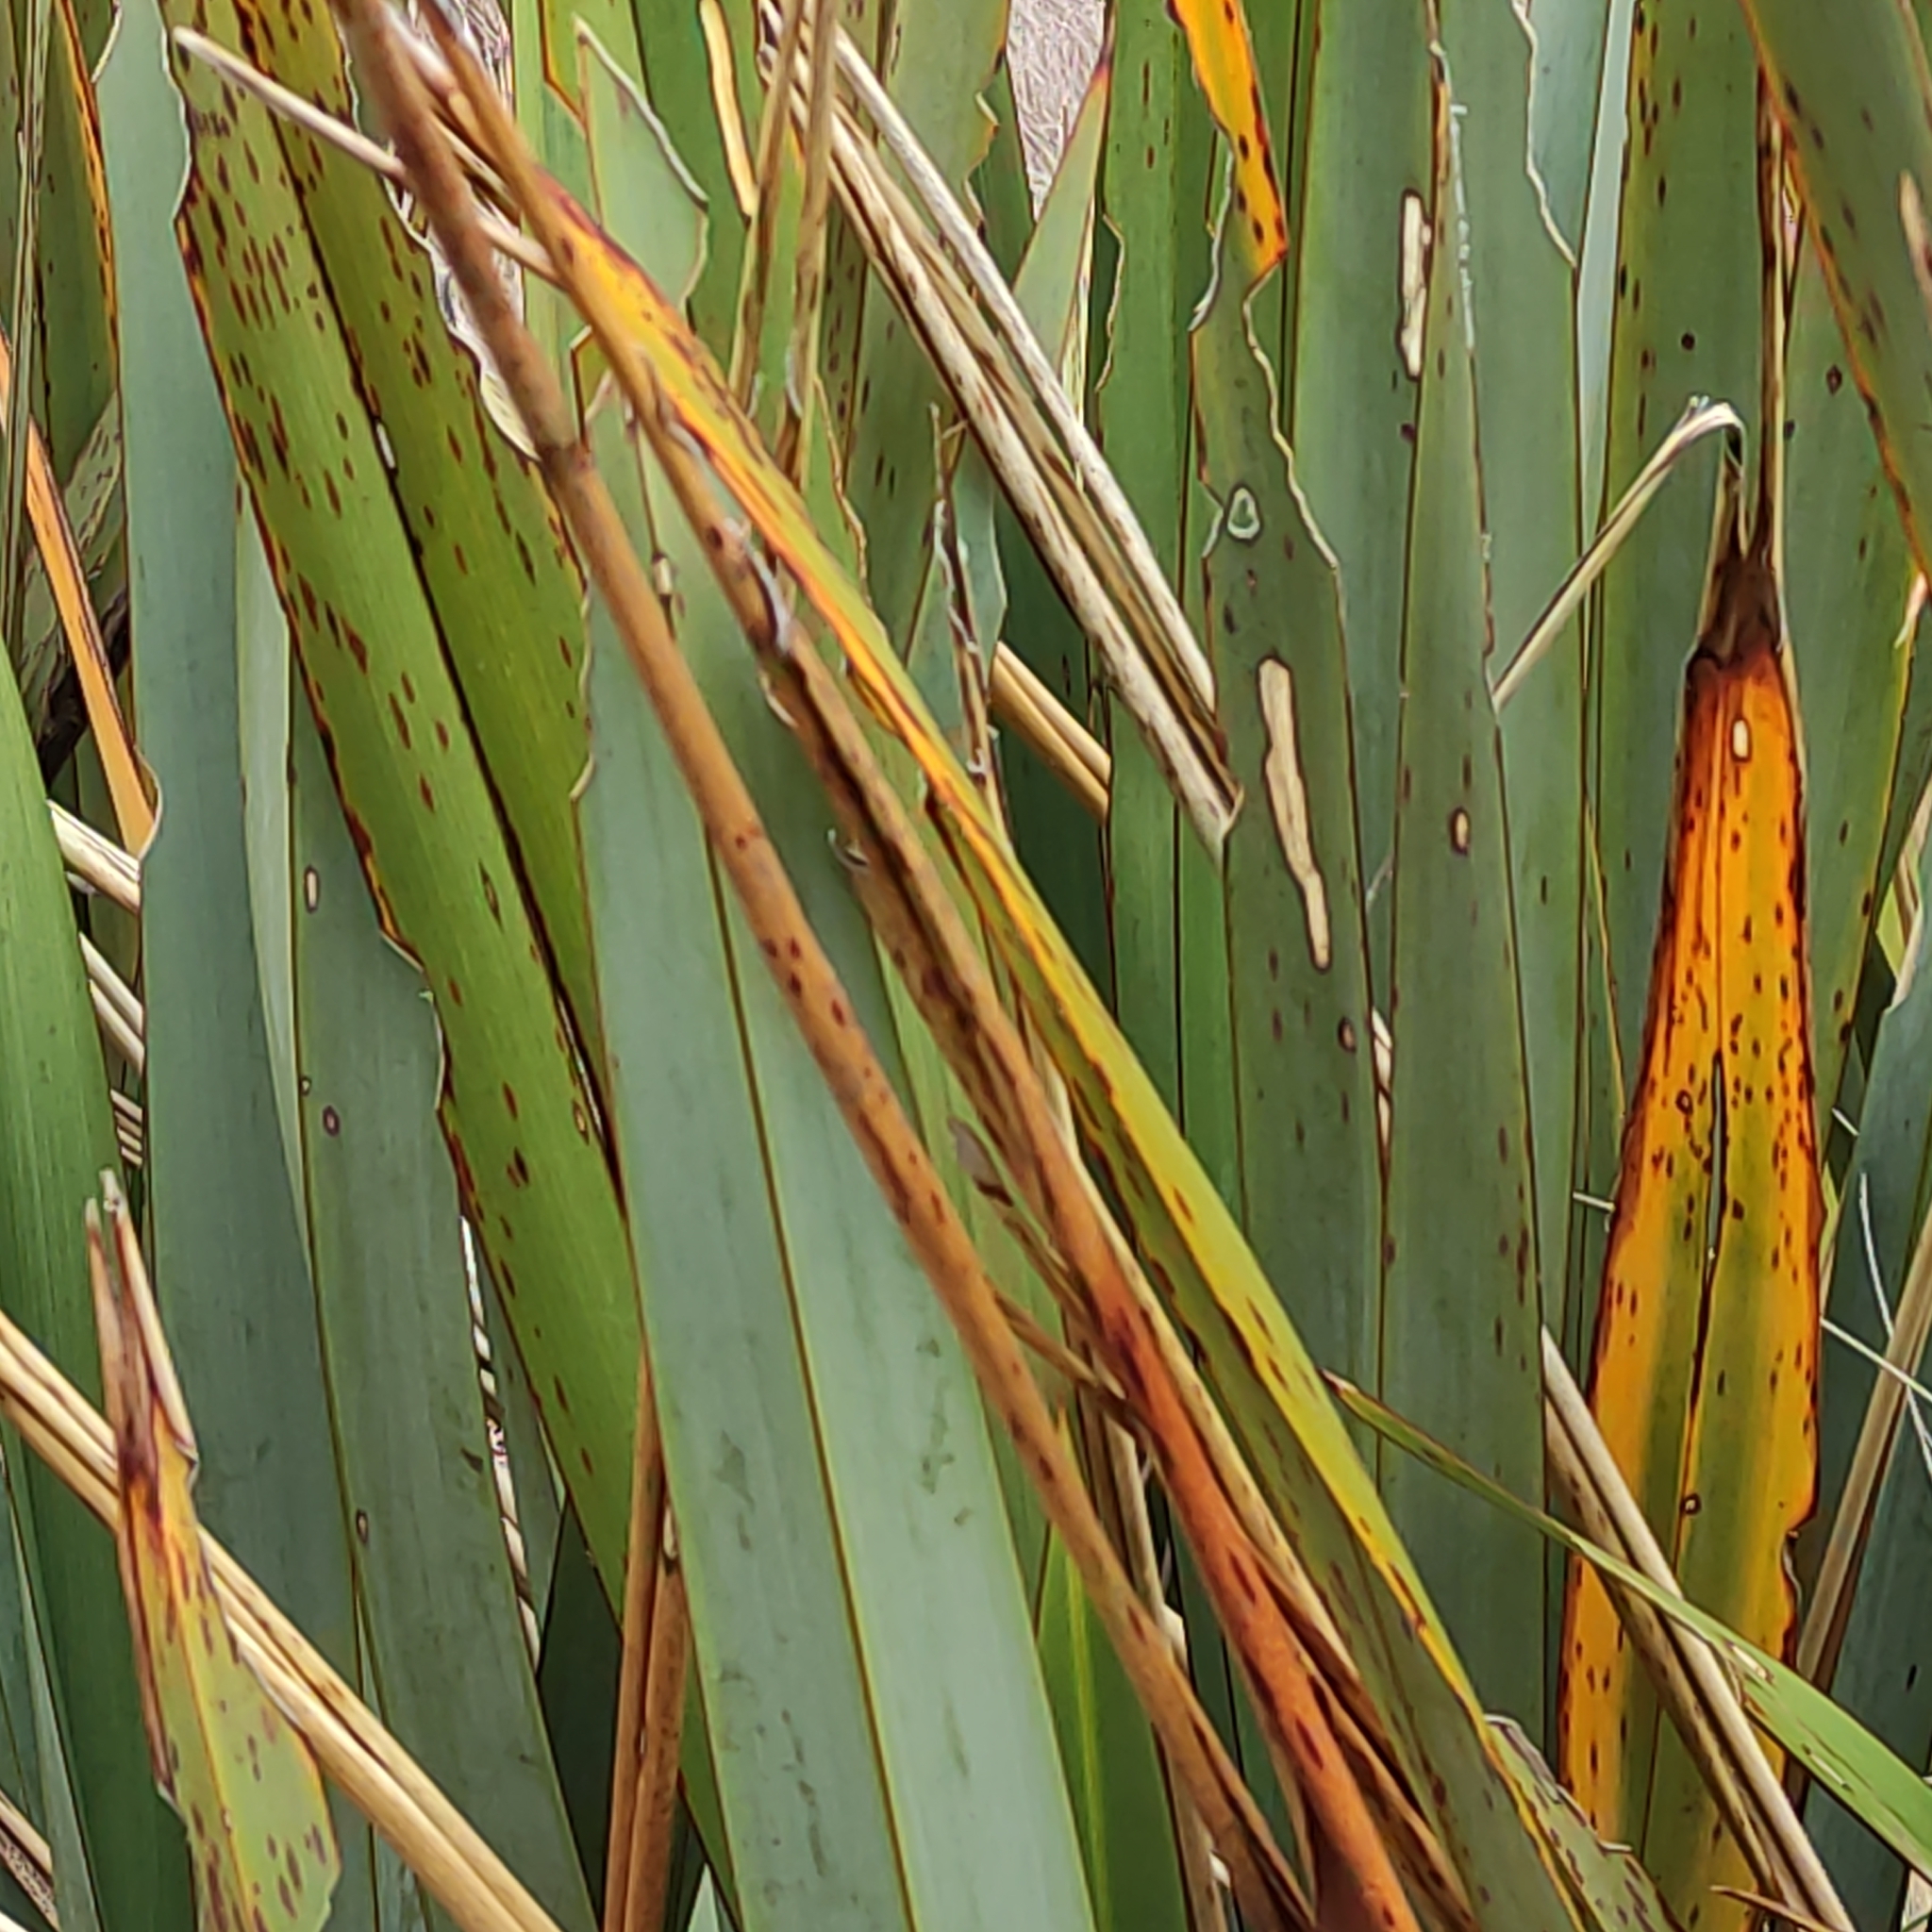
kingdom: Plantae
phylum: Tracheophyta
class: Liliopsida
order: Asparagales
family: Asphodelaceae
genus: Phormium
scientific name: Phormium tenax
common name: New zealand flax
